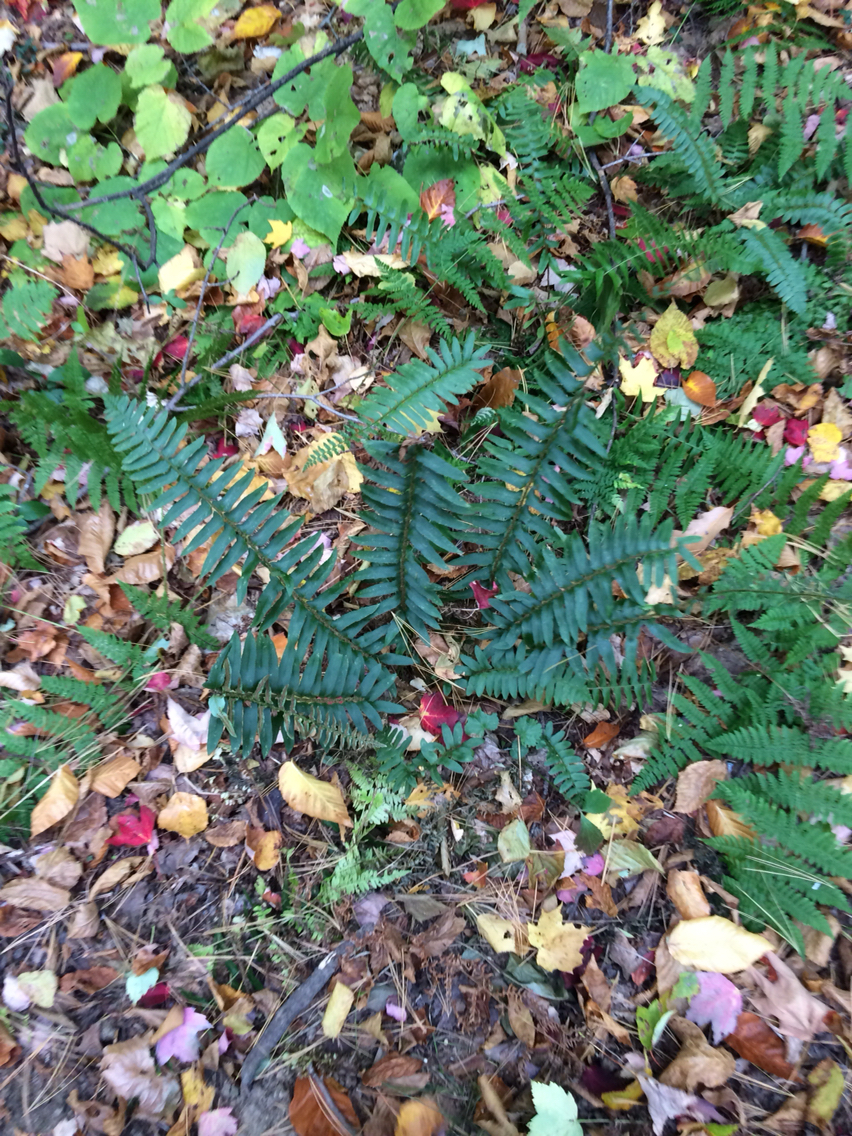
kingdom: Plantae
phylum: Tracheophyta
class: Polypodiopsida
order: Polypodiales
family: Dryopteridaceae
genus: Polystichum
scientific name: Polystichum acrostichoides
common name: Christmas fern
